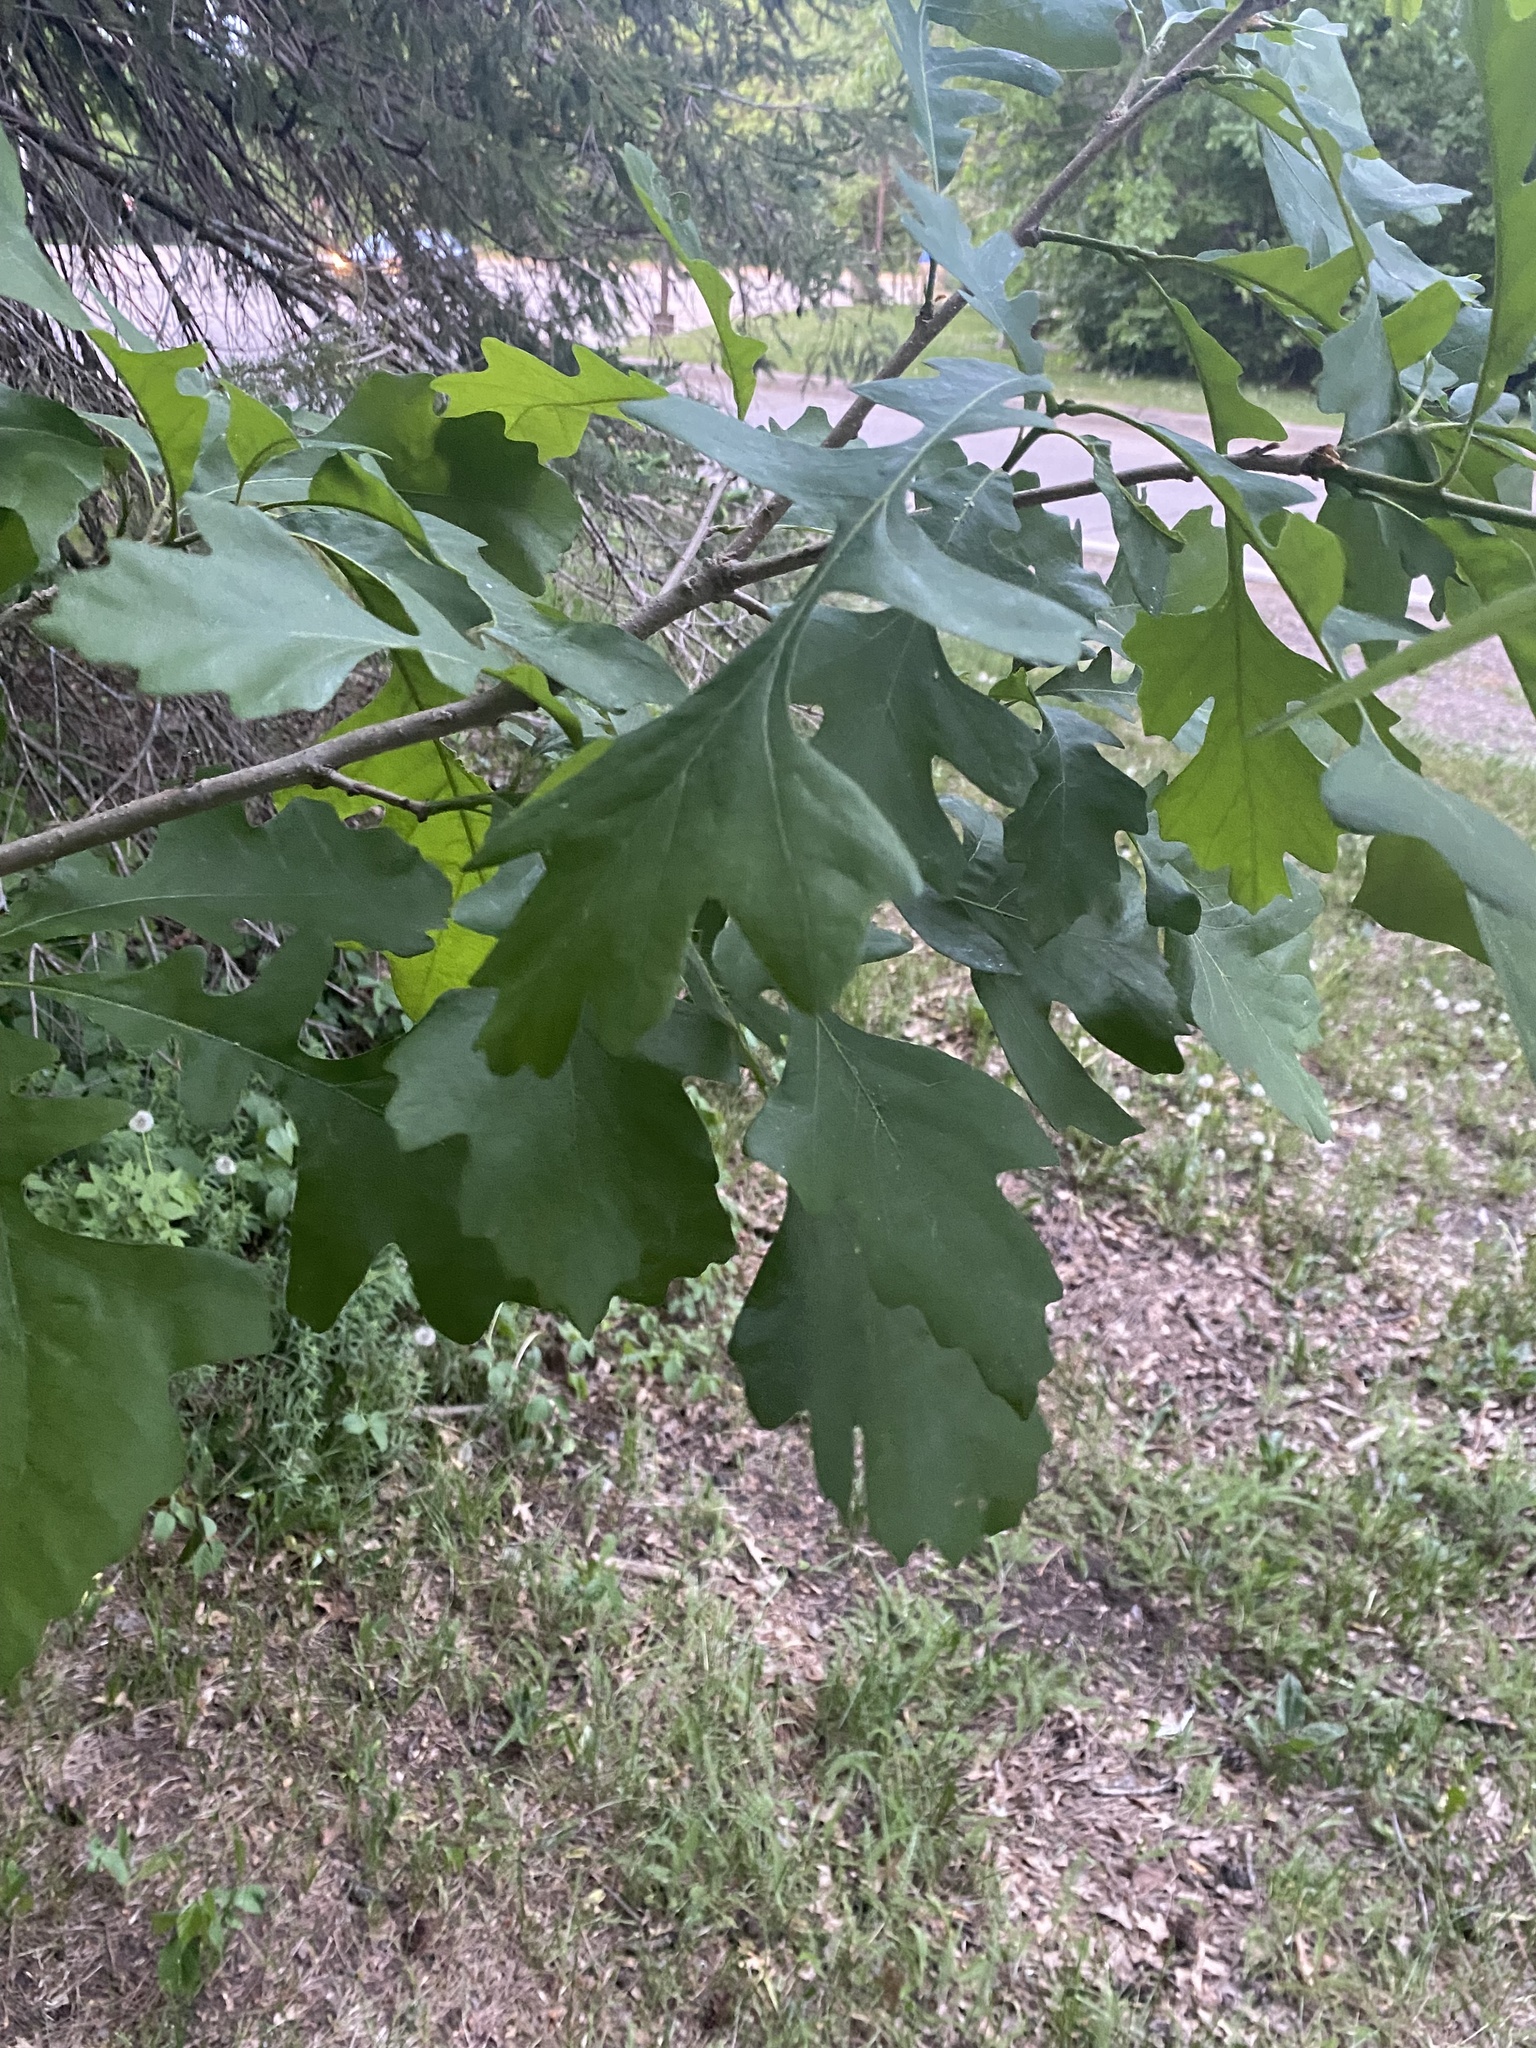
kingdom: Plantae
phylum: Tracheophyta
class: Magnoliopsida
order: Fagales
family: Fagaceae
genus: Quercus
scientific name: Quercus macrocarpa
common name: Bur oak
